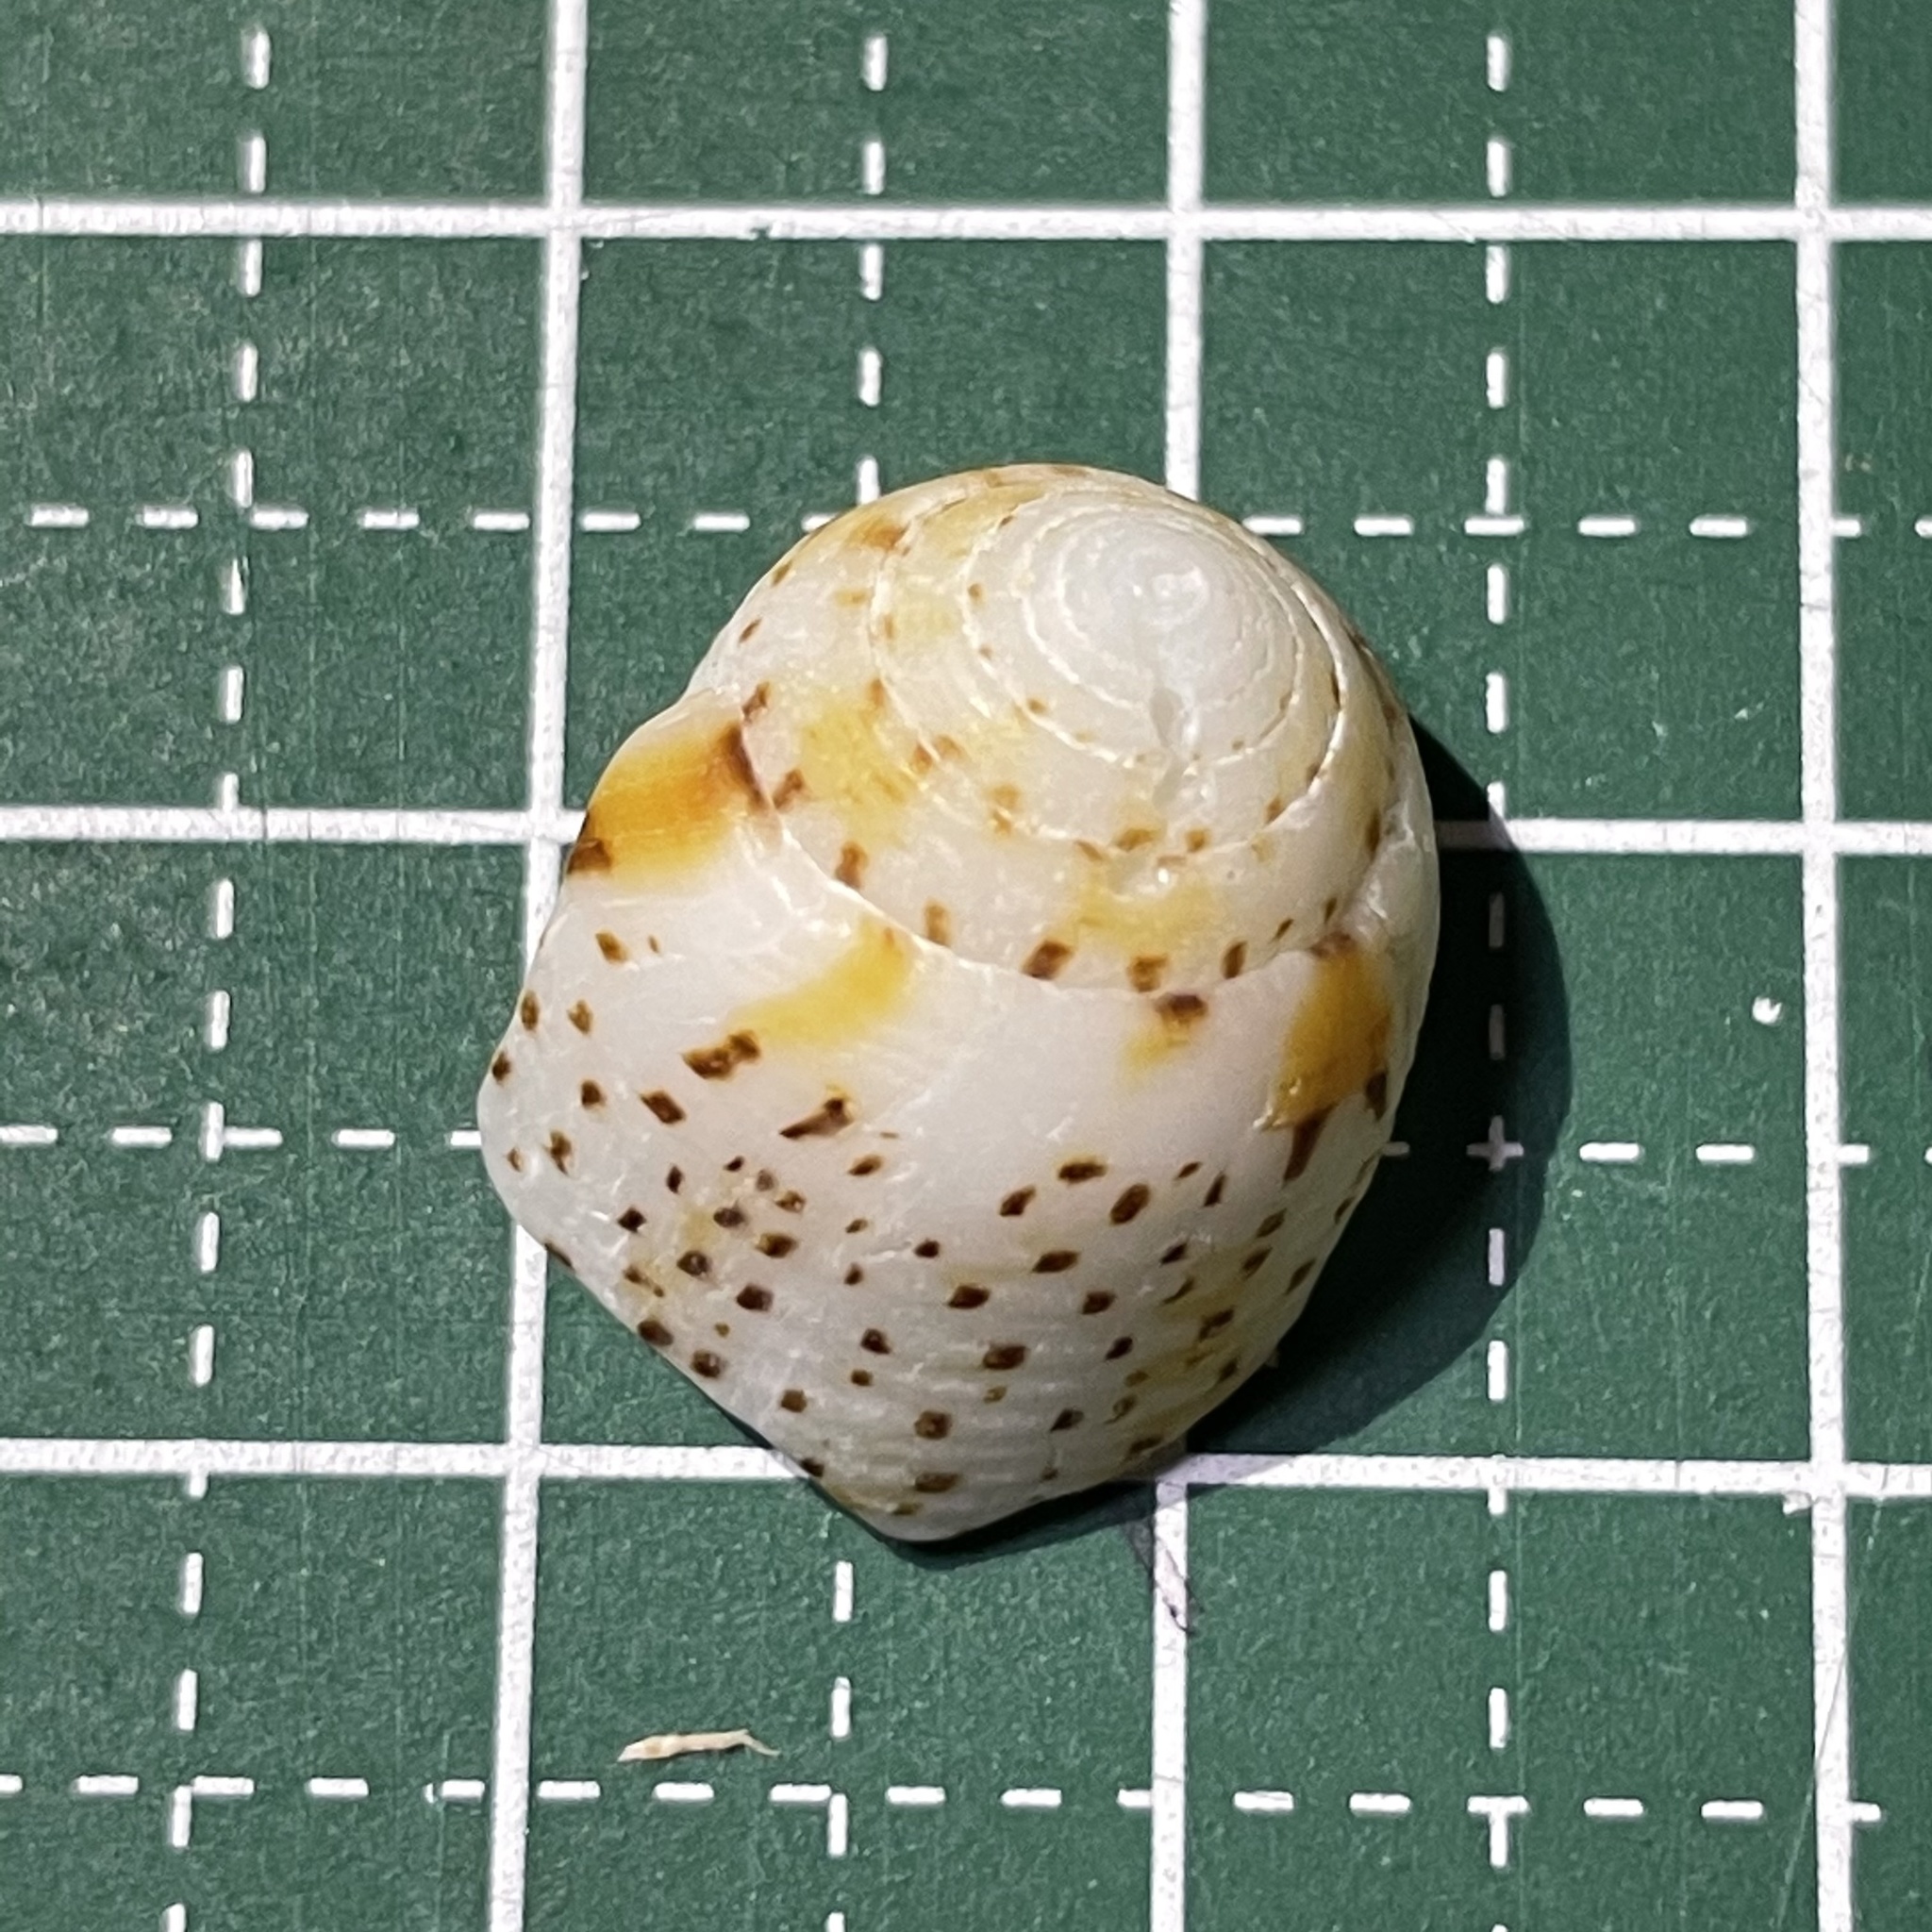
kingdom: Animalia
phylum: Mollusca
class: Gastropoda
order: Neogastropoda
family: Conidae
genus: Conus
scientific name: Conus nussatella
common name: Nussatella cone
